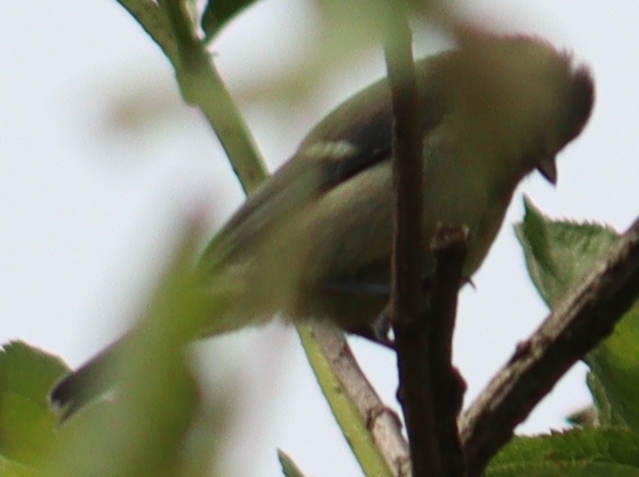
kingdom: Animalia
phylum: Chordata
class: Aves
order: Passeriformes
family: Paridae
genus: Cyanistes
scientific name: Cyanistes caeruleus
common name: Eurasian blue tit
